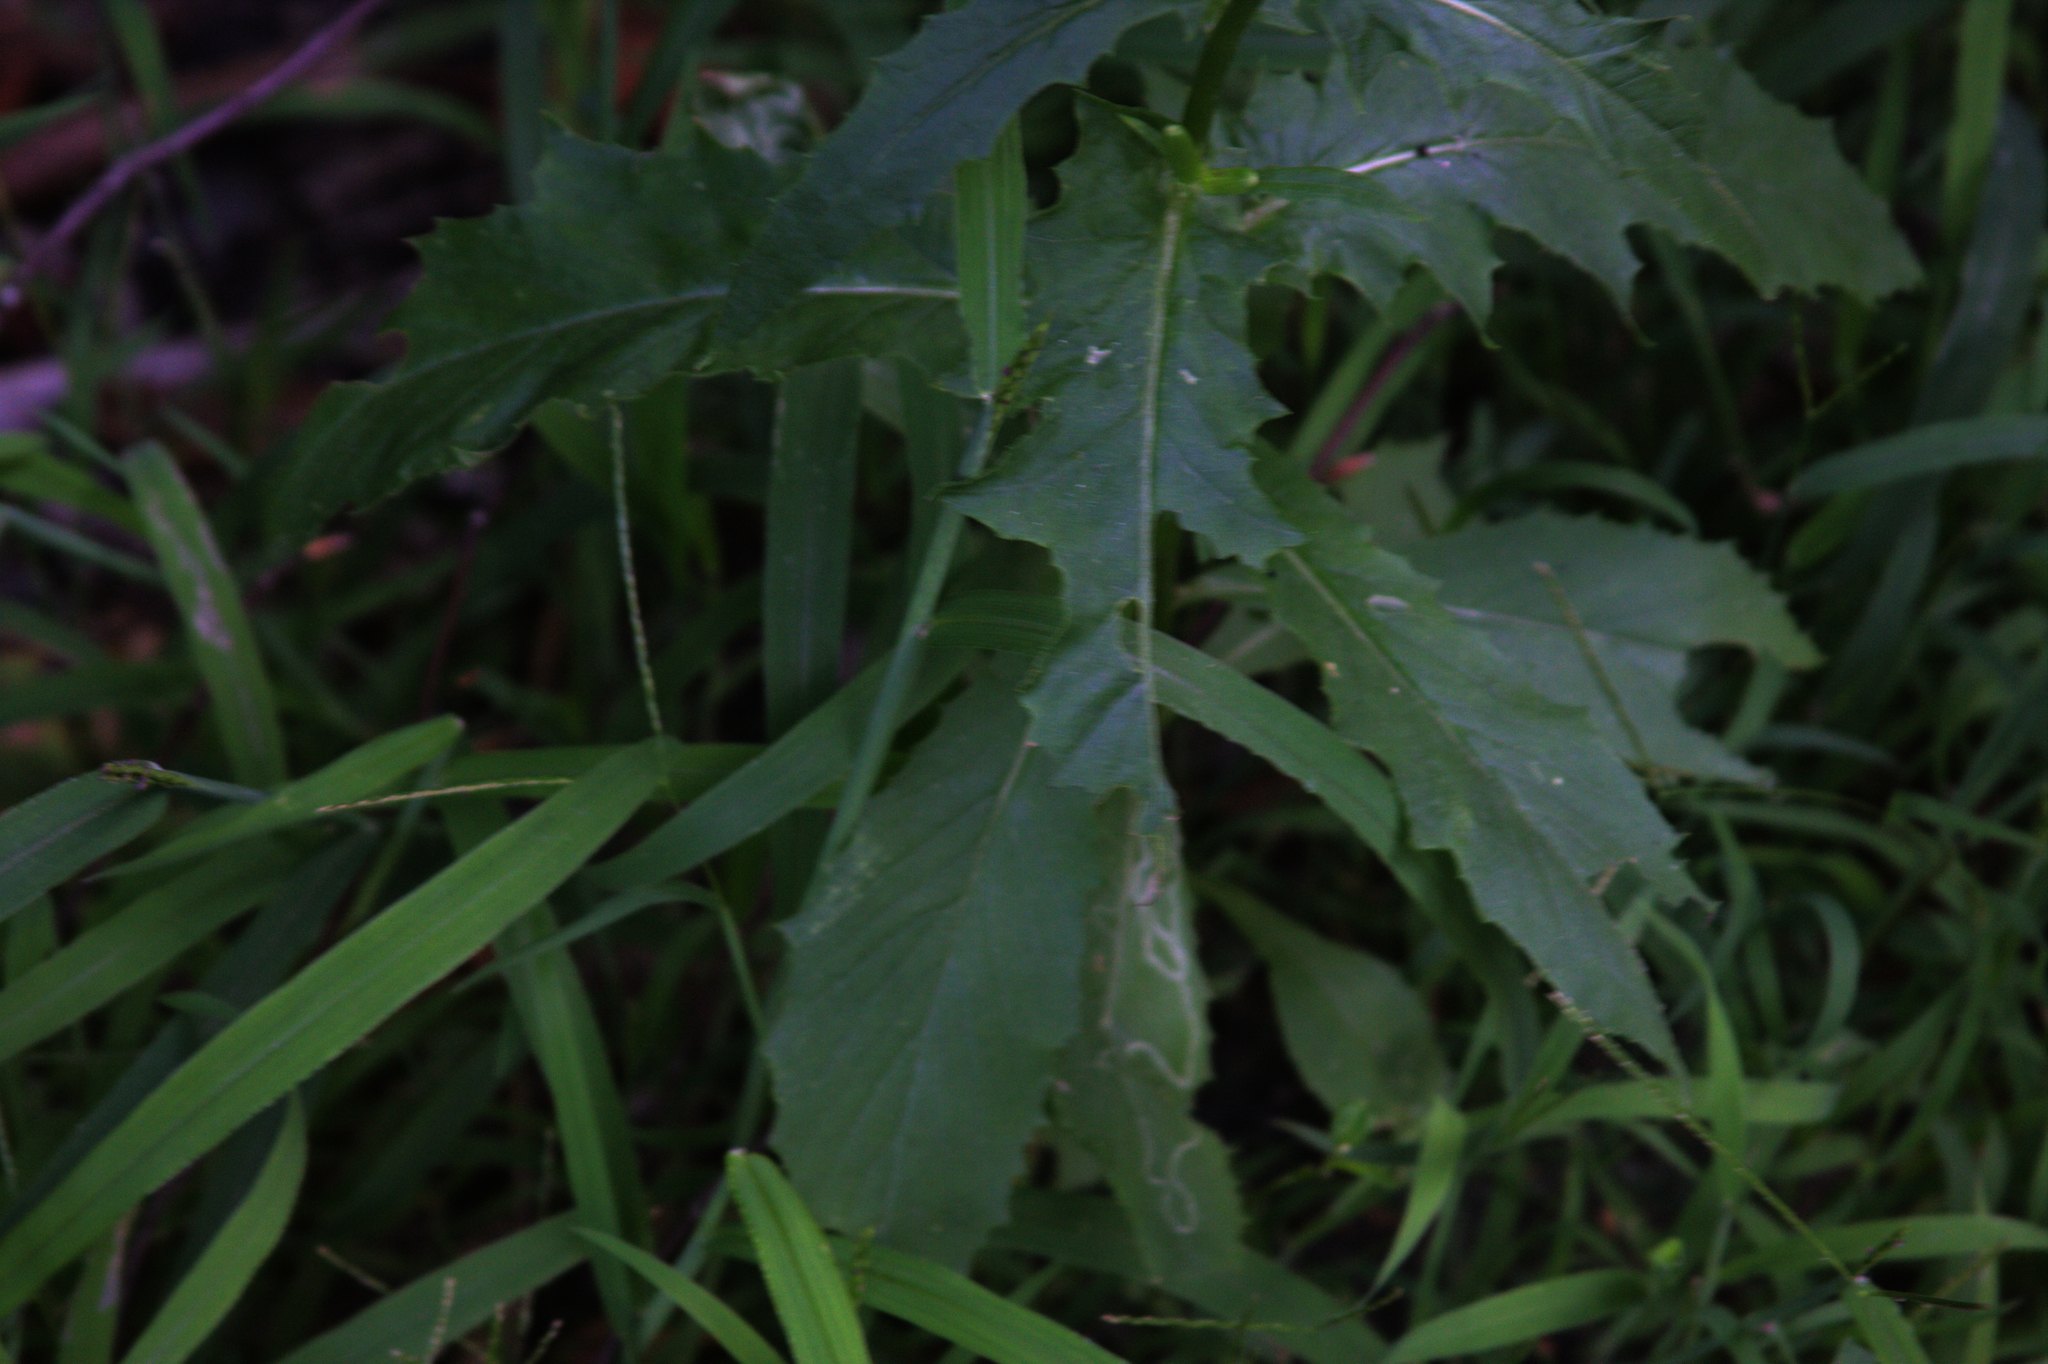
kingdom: Plantae
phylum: Tracheophyta
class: Magnoliopsida
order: Asterales
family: Asteraceae
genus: Erechtites
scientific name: Erechtites hieraciifolius
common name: American burnweed
